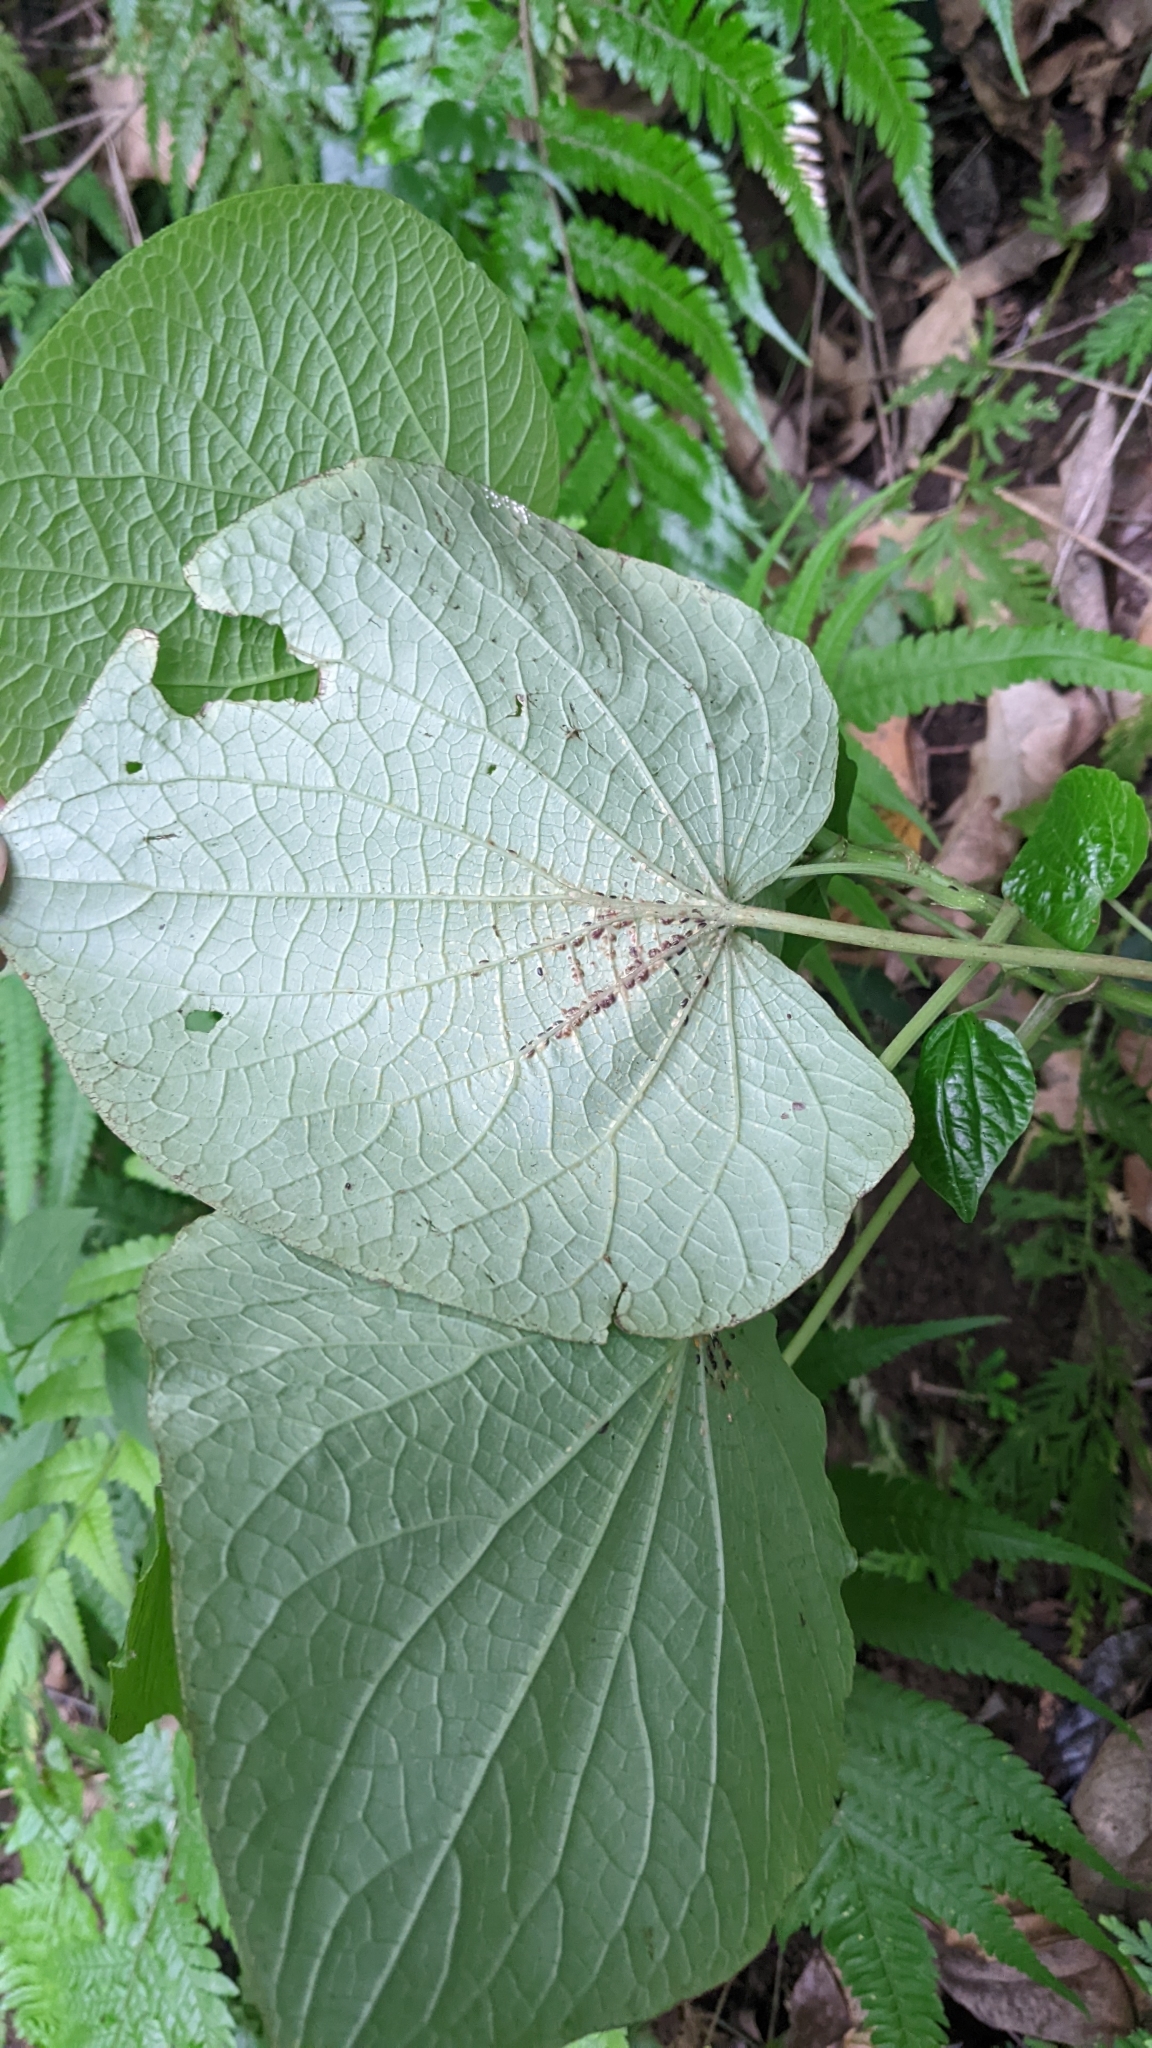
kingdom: Plantae
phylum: Tracheophyta
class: Magnoliopsida
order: Piperales
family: Piperaceae
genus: Piper
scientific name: Piper umbellatum
